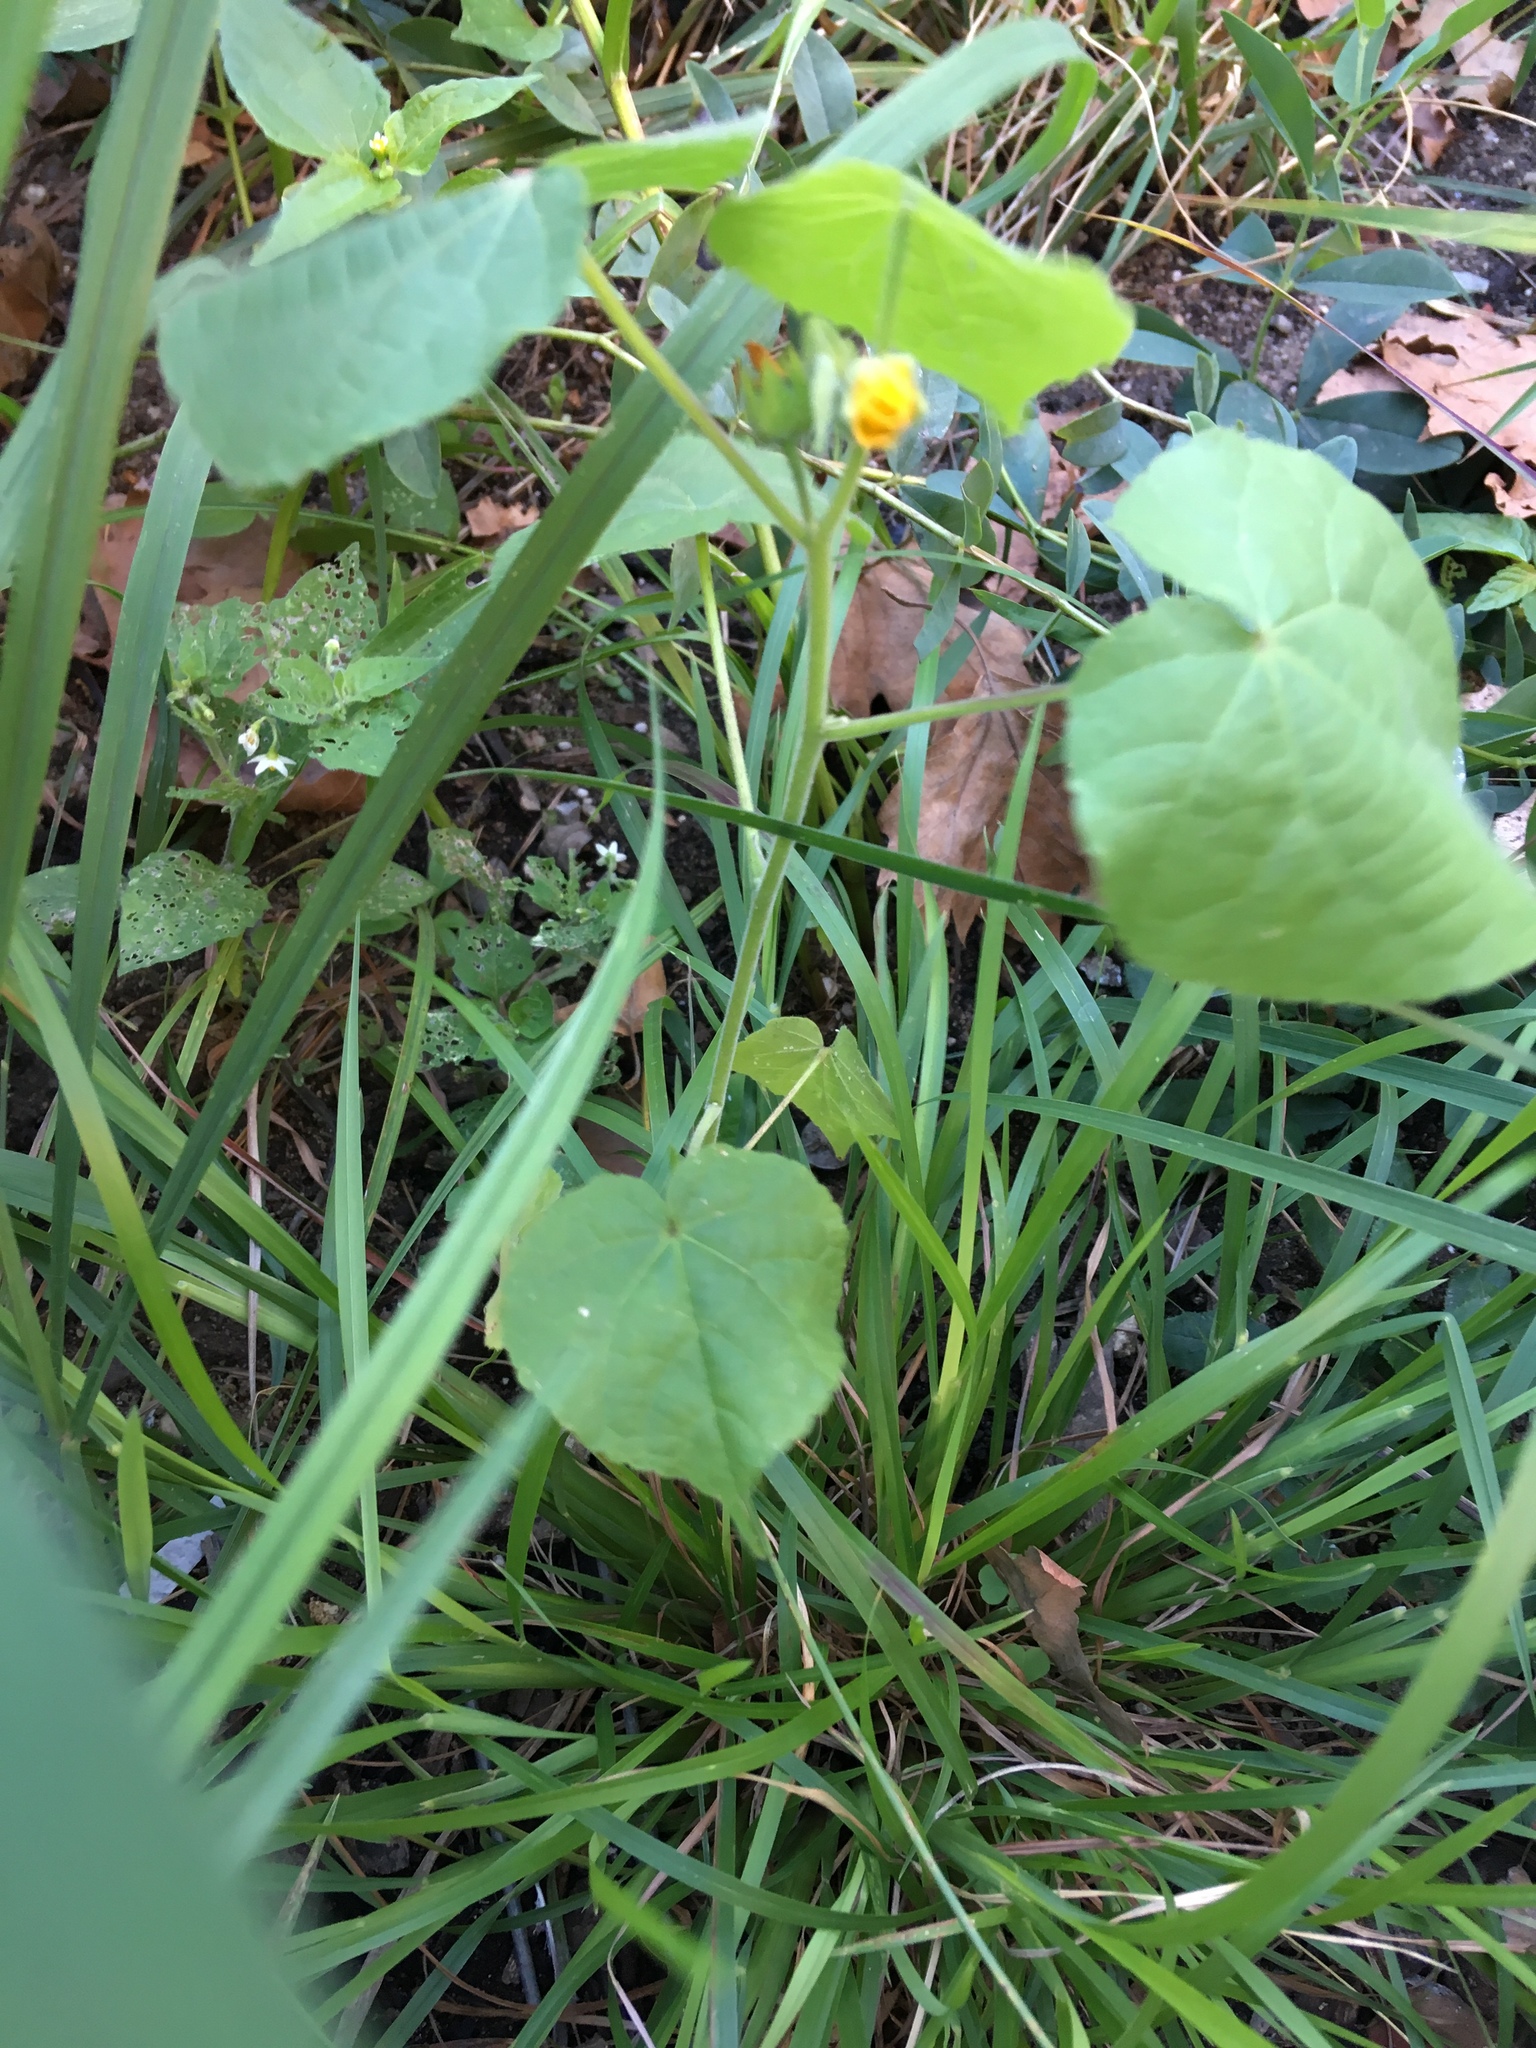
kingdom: Plantae
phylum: Tracheophyta
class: Magnoliopsida
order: Malvales
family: Malvaceae
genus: Abutilon
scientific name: Abutilon theophrasti
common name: Velvetleaf
